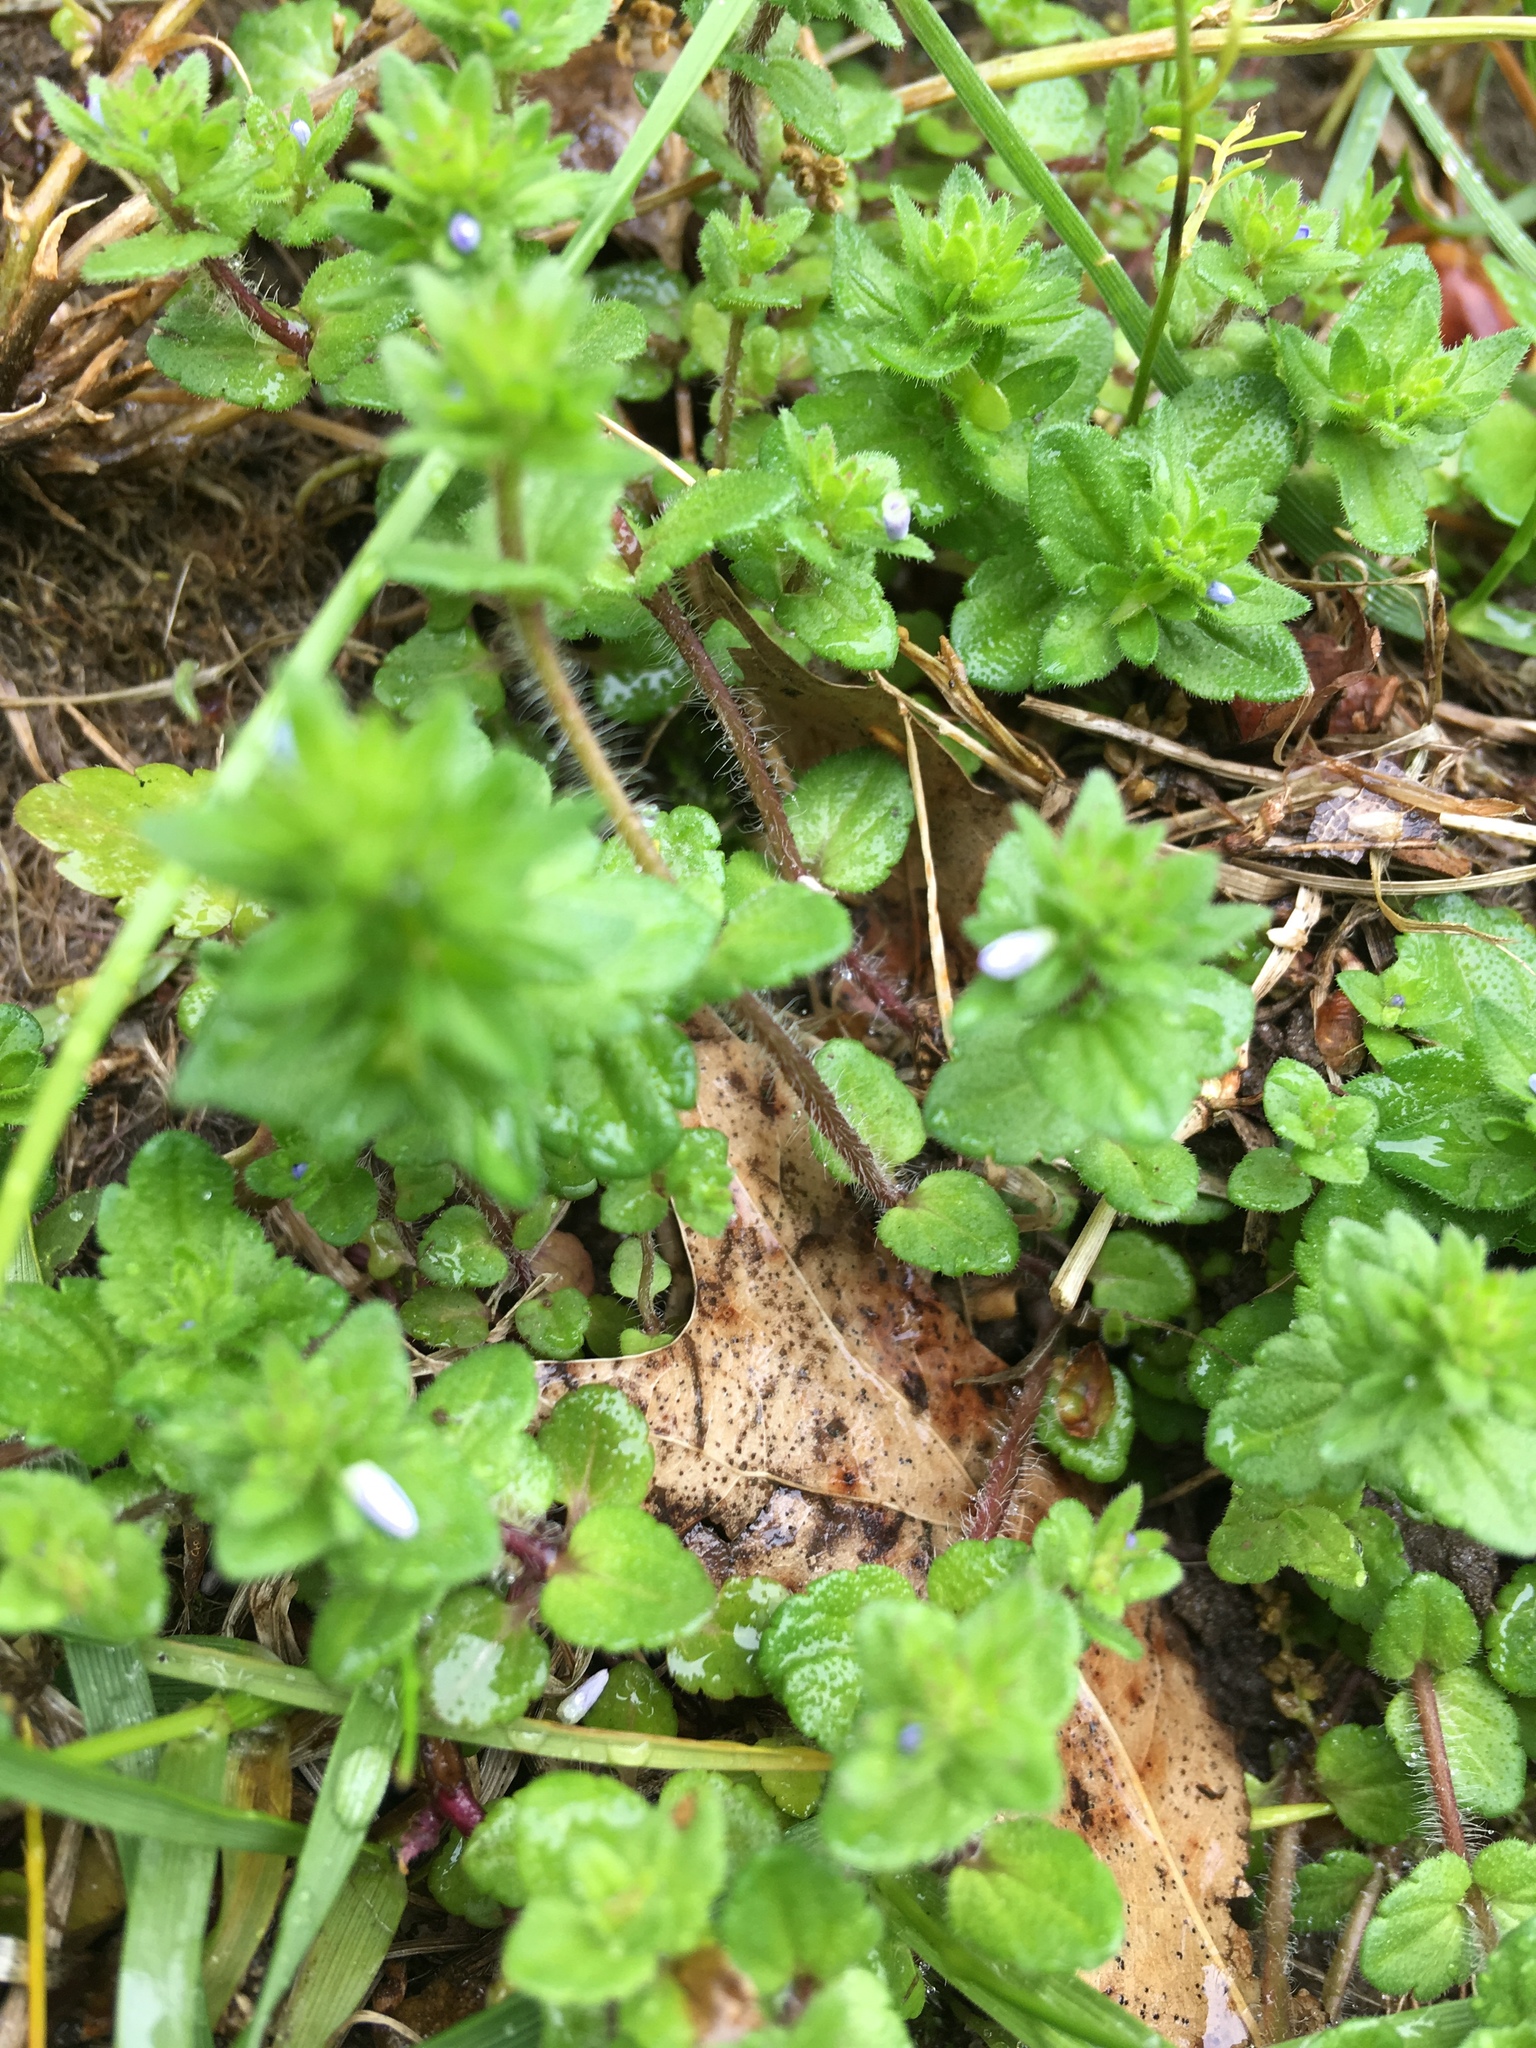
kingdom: Plantae
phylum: Tracheophyta
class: Magnoliopsida
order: Lamiales
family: Plantaginaceae
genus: Veronica
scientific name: Veronica arvensis
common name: Corn speedwell
